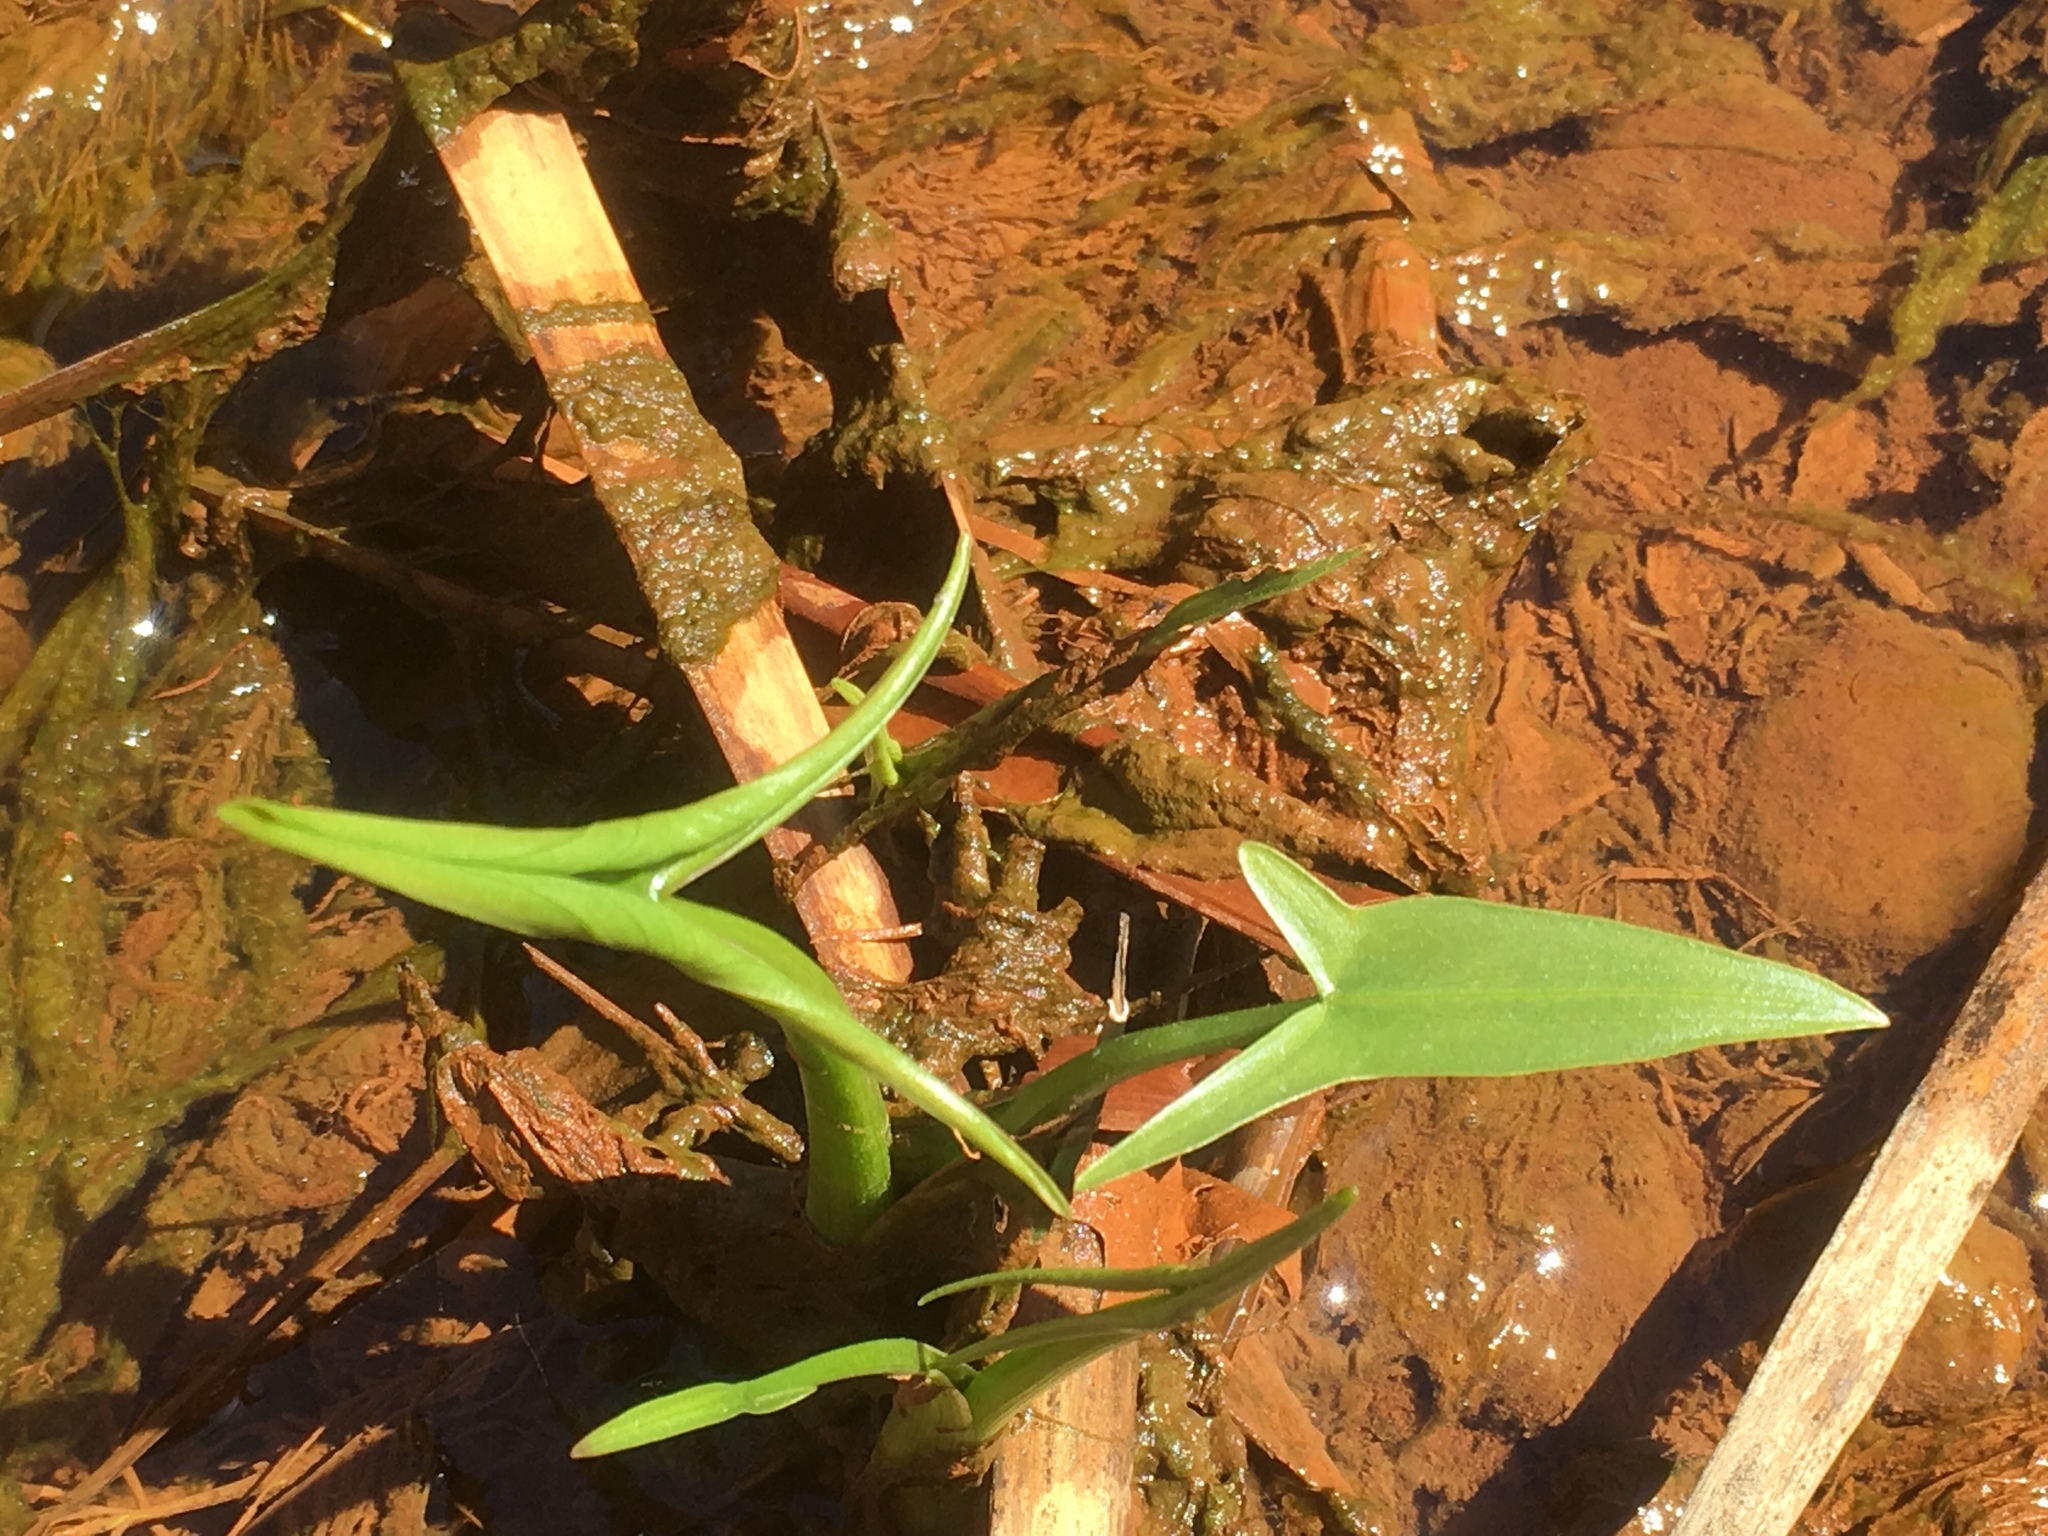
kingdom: Plantae
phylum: Tracheophyta
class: Liliopsida
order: Alismatales
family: Alismataceae
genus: Sagittaria
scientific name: Sagittaria latifolia
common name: Duck-potato
